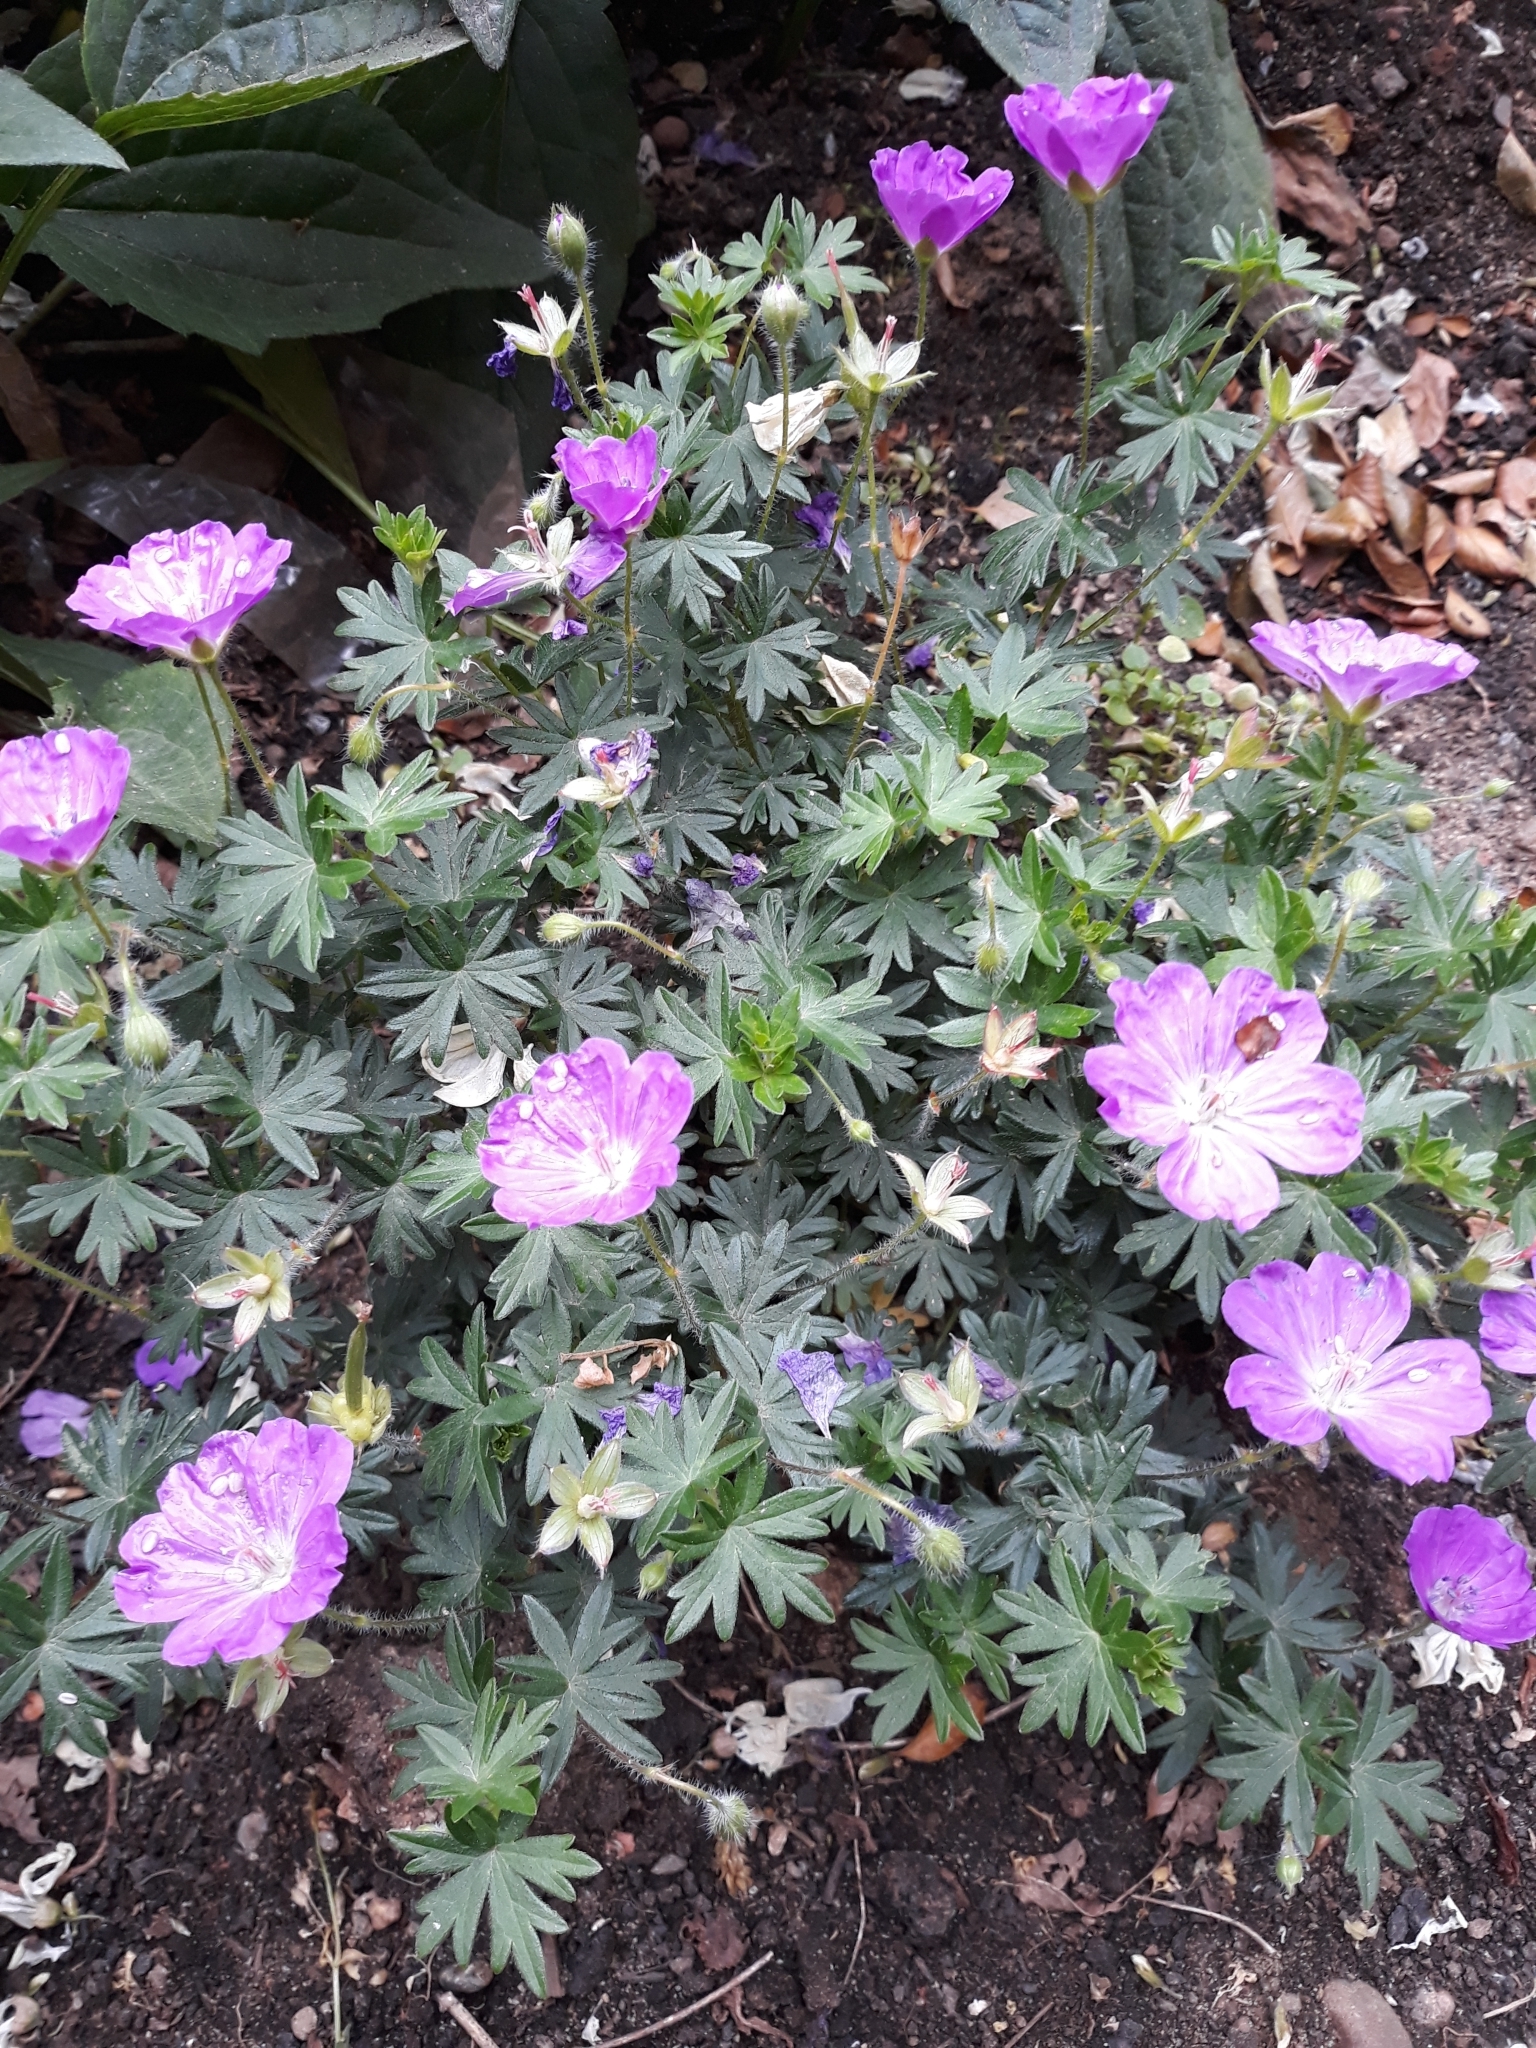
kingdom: Plantae
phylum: Tracheophyta
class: Magnoliopsida
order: Geraniales
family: Geraniaceae
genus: Geranium
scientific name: Geranium sanguineum
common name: Bloody crane's-bill
